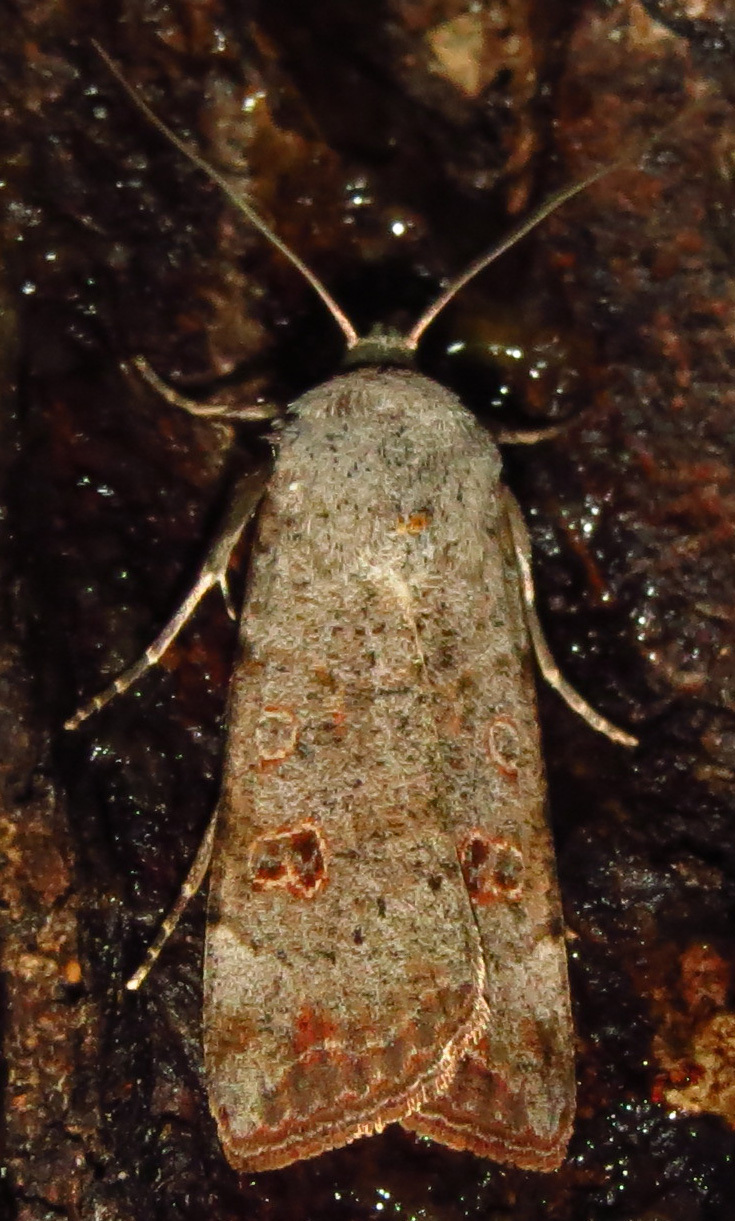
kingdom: Animalia
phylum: Arthropoda
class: Insecta
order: Lepidoptera
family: Noctuidae
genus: Anicla
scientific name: Anicla infecta
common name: Green cutworm
